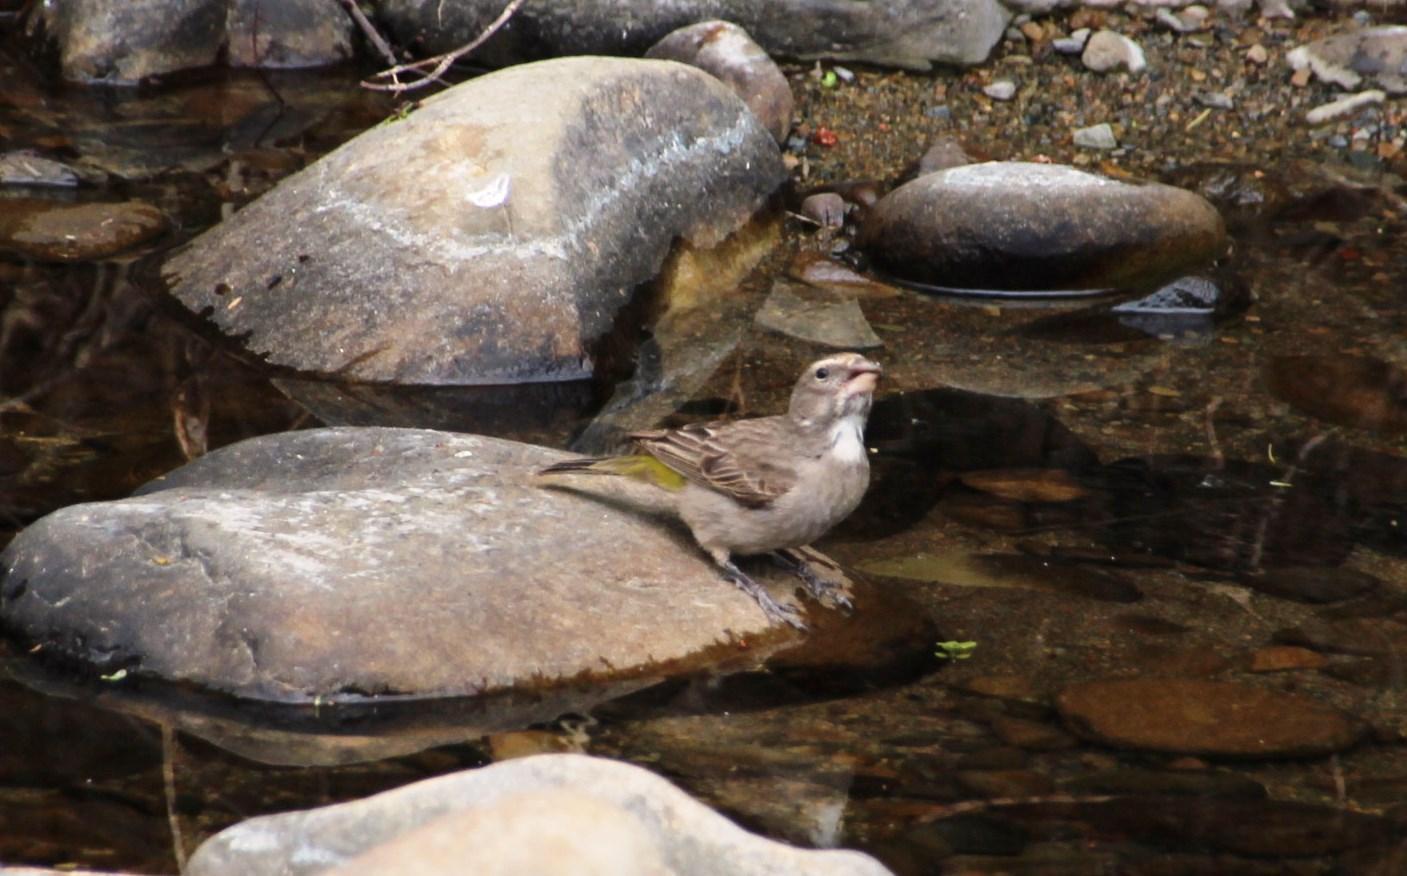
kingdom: Animalia
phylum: Chordata
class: Aves
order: Passeriformes
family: Fringillidae
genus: Crithagra
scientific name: Crithagra albogularis
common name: White-throated canary
